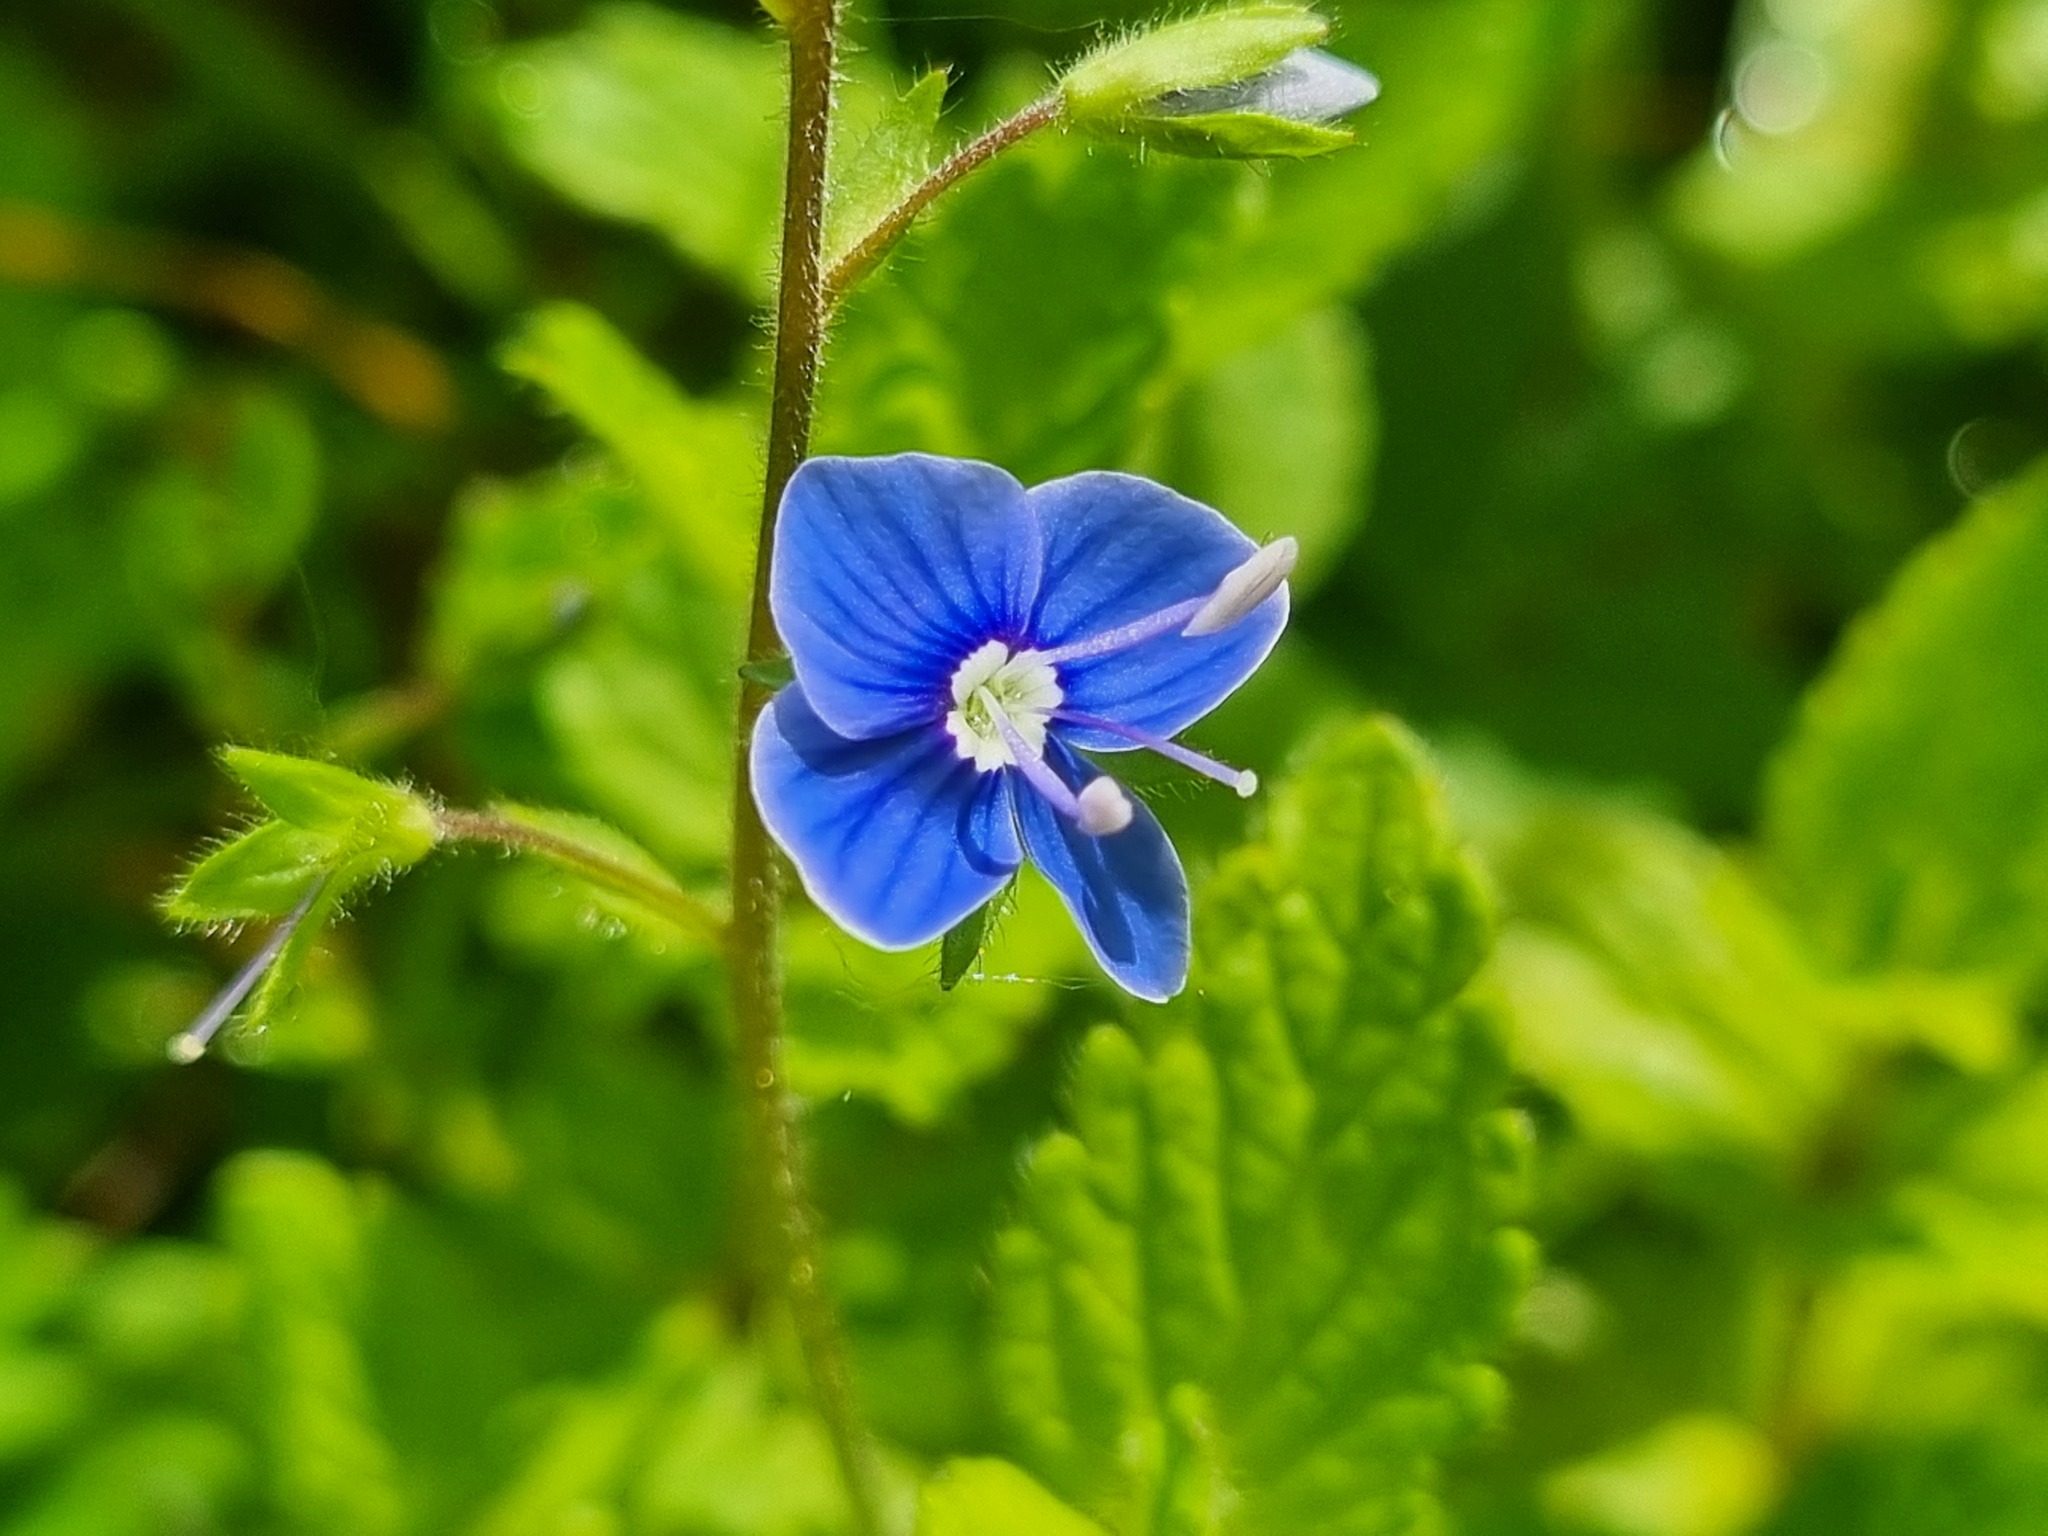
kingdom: Plantae
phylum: Tracheophyta
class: Magnoliopsida
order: Lamiales
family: Plantaginaceae
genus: Veronica
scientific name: Veronica chamaedrys
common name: Germander speedwell
